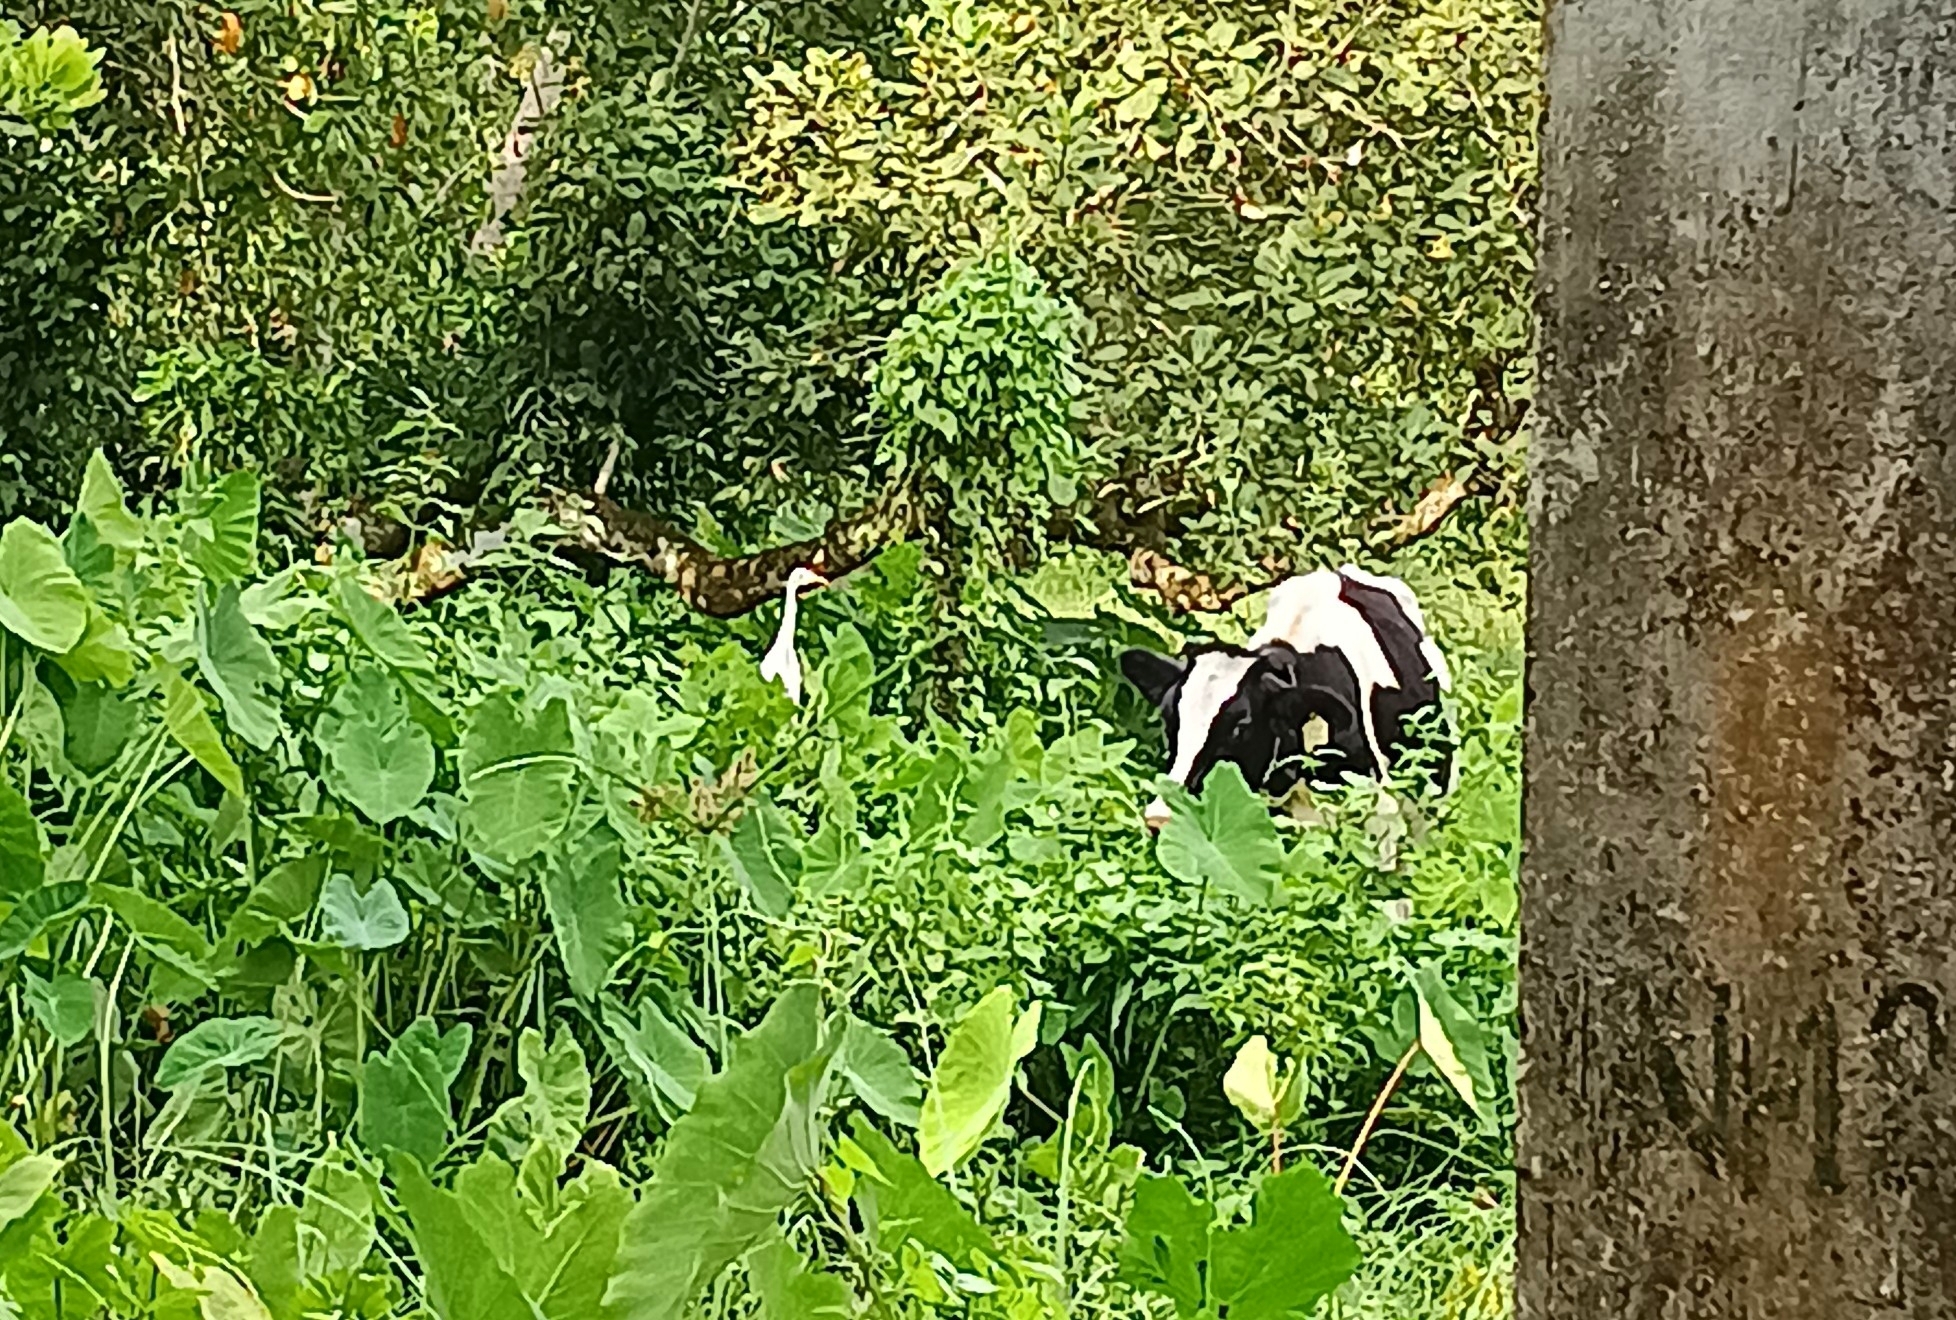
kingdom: Animalia
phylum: Chordata
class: Aves
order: Pelecaniformes
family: Ardeidae
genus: Bubulcus
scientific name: Bubulcus coromandus
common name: Eastern cattle egret
